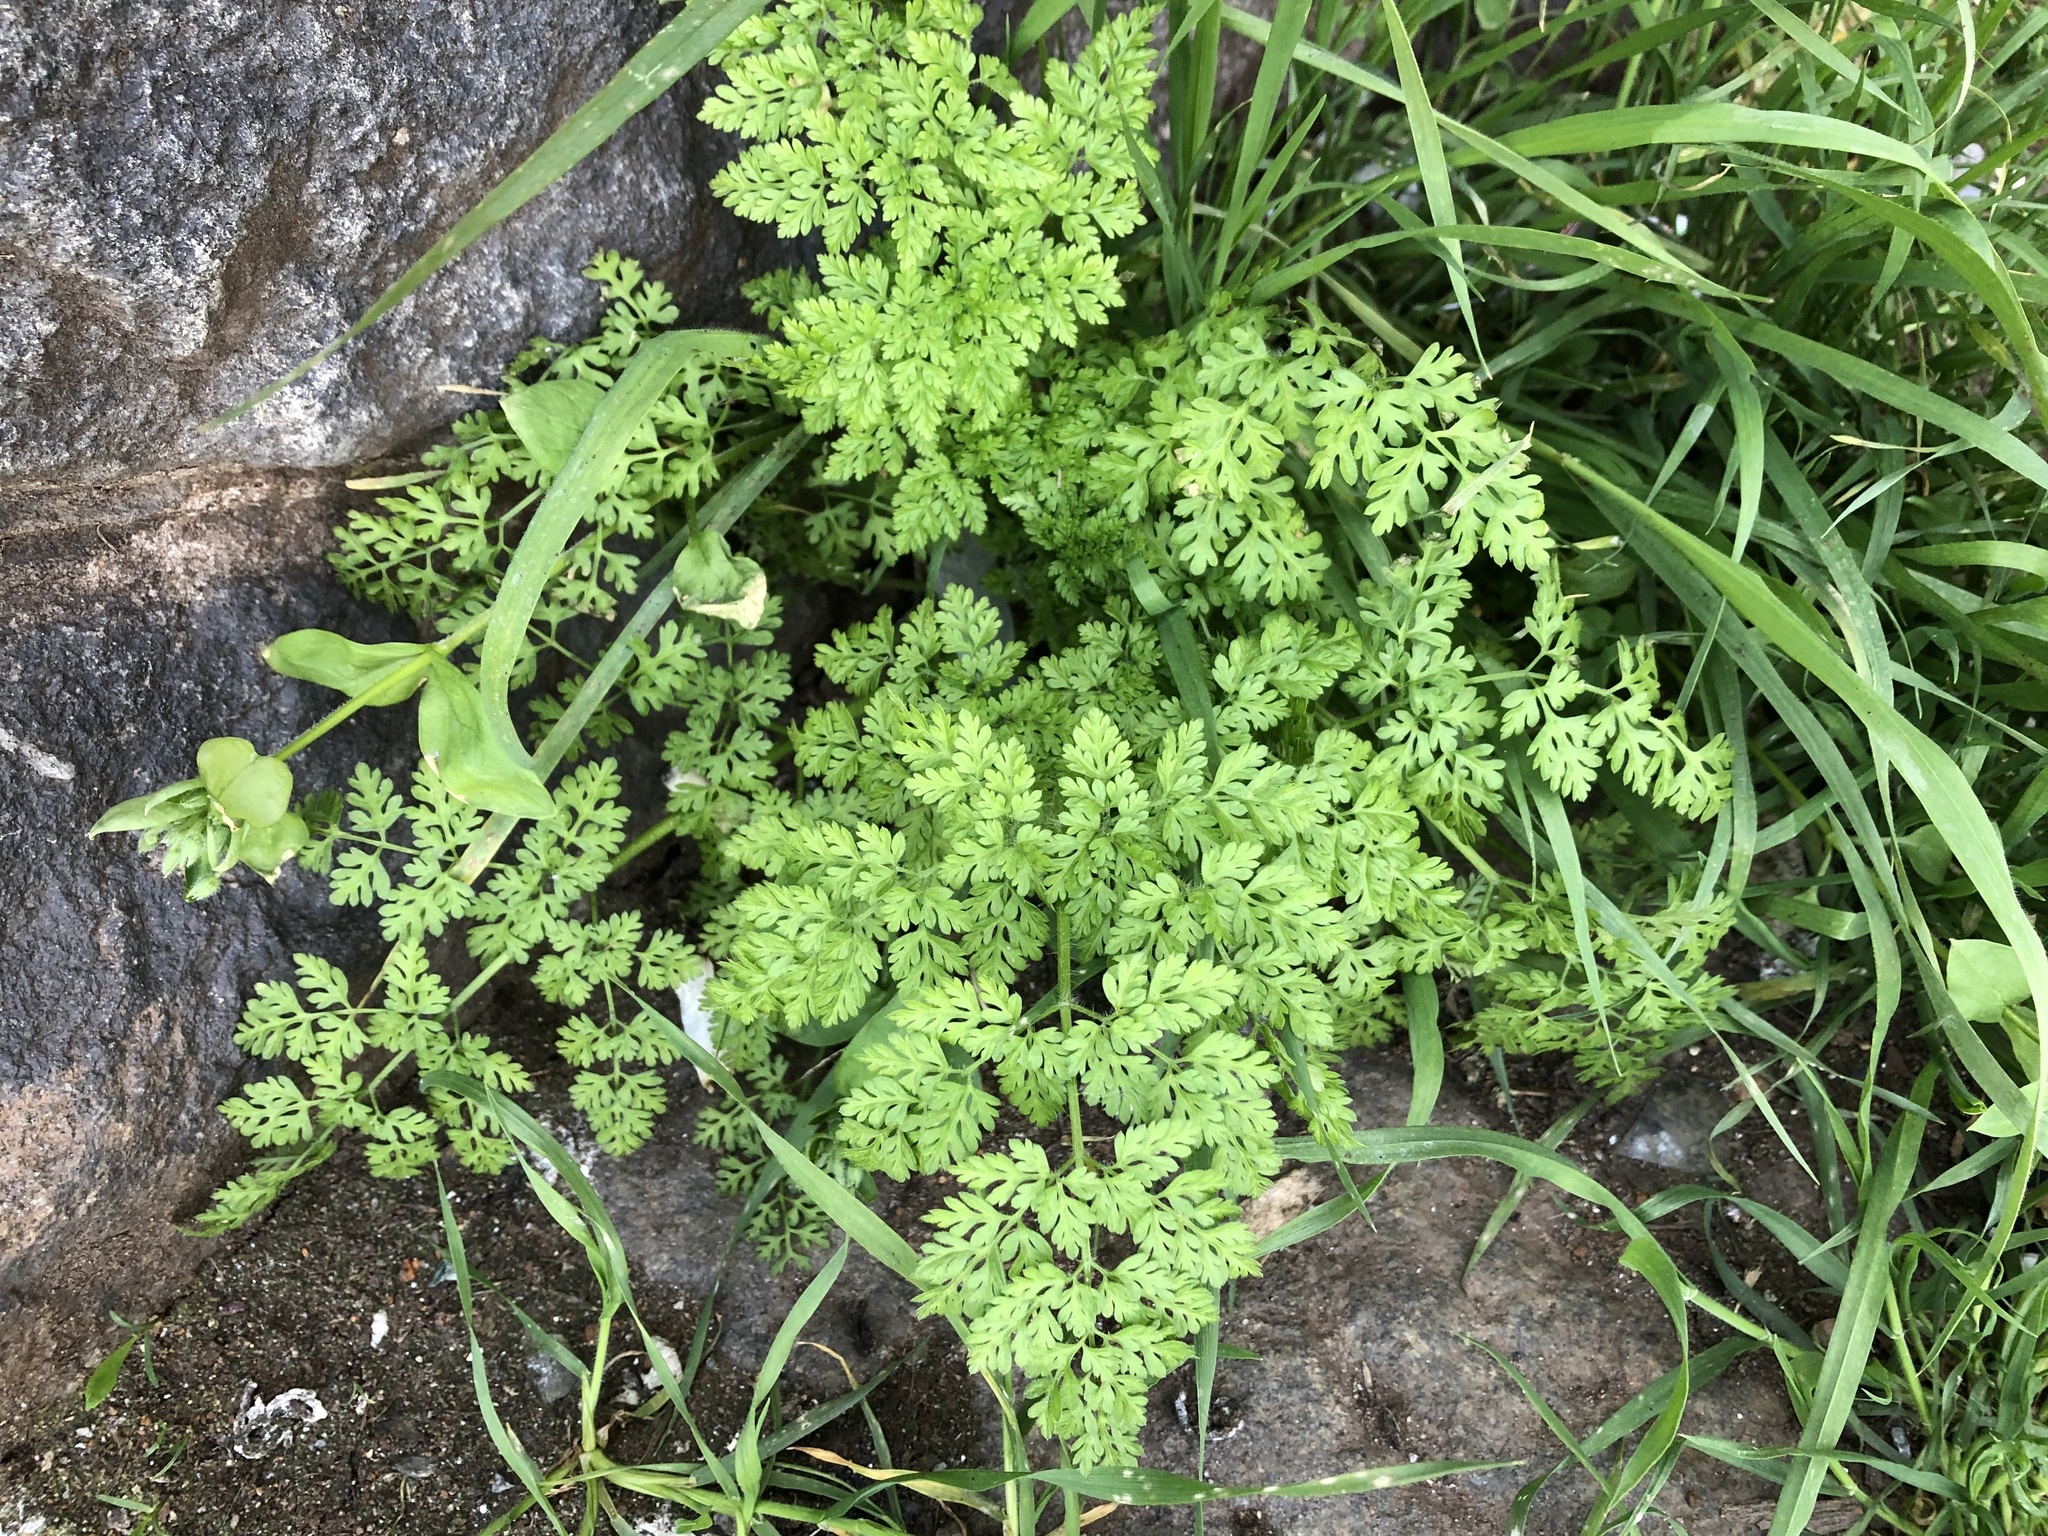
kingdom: Plantae
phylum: Tracheophyta
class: Magnoliopsida
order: Apiales
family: Apiaceae
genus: Anthriscus
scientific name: Anthriscus caucalis
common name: Bur chervil
